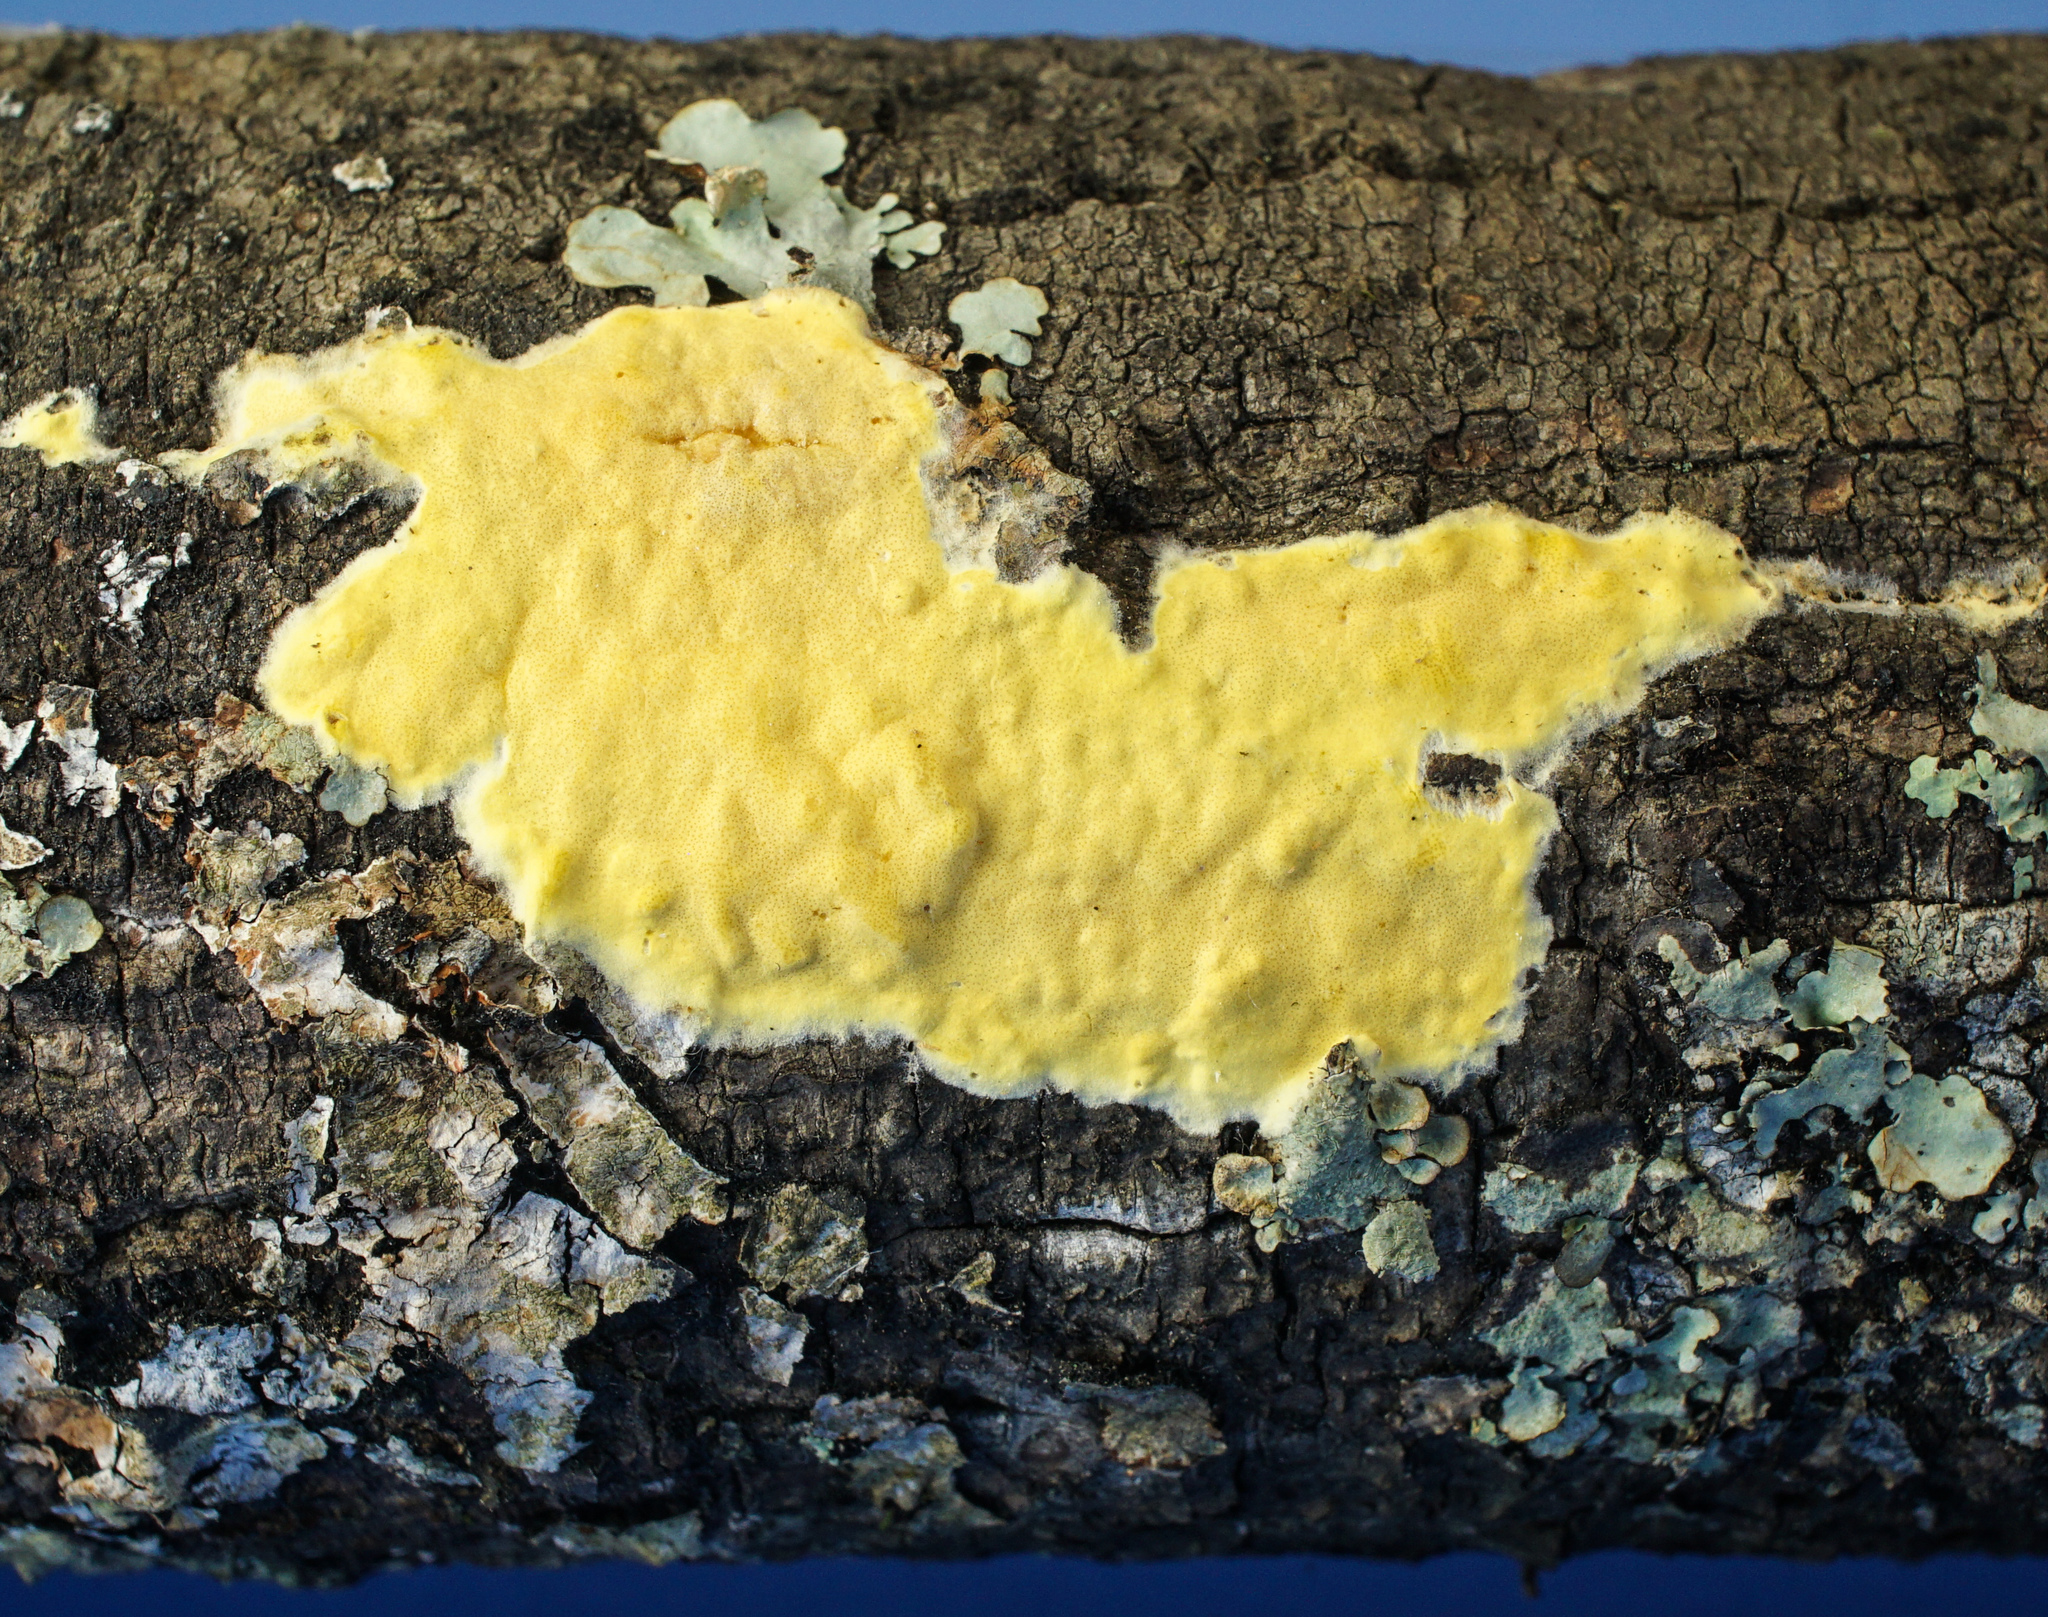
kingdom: Fungi
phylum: Ascomycota
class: Sordariomycetes
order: Hypocreales
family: Hypocreaceae
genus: Trichoderma
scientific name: Trichoderma sulphureum
